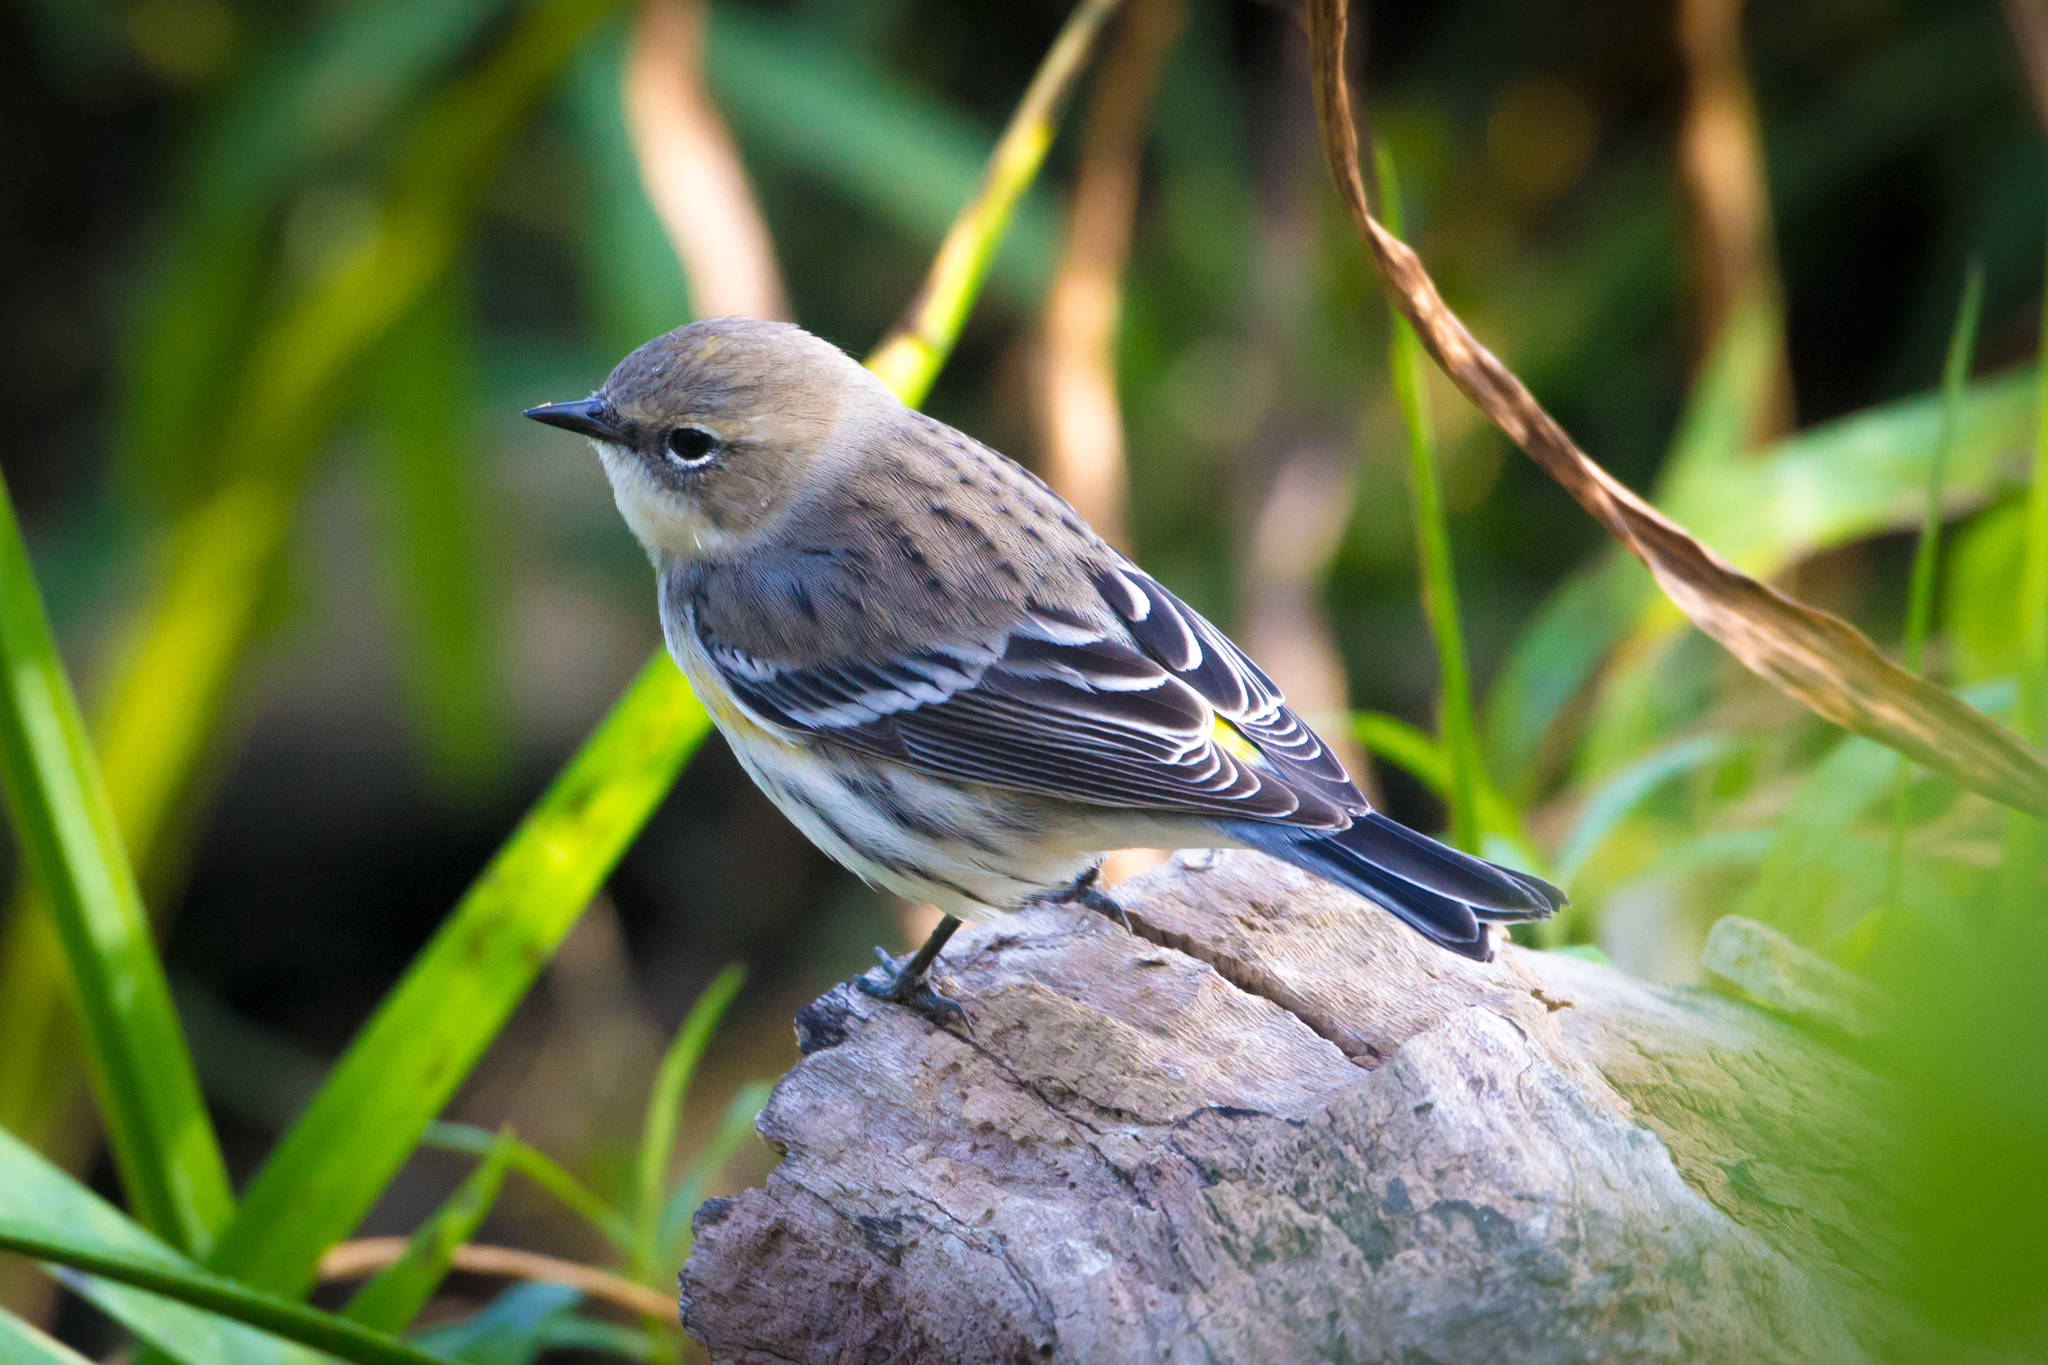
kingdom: Animalia
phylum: Chordata
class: Aves
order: Passeriformes
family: Parulidae
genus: Setophaga
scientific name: Setophaga coronata
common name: Myrtle warbler
